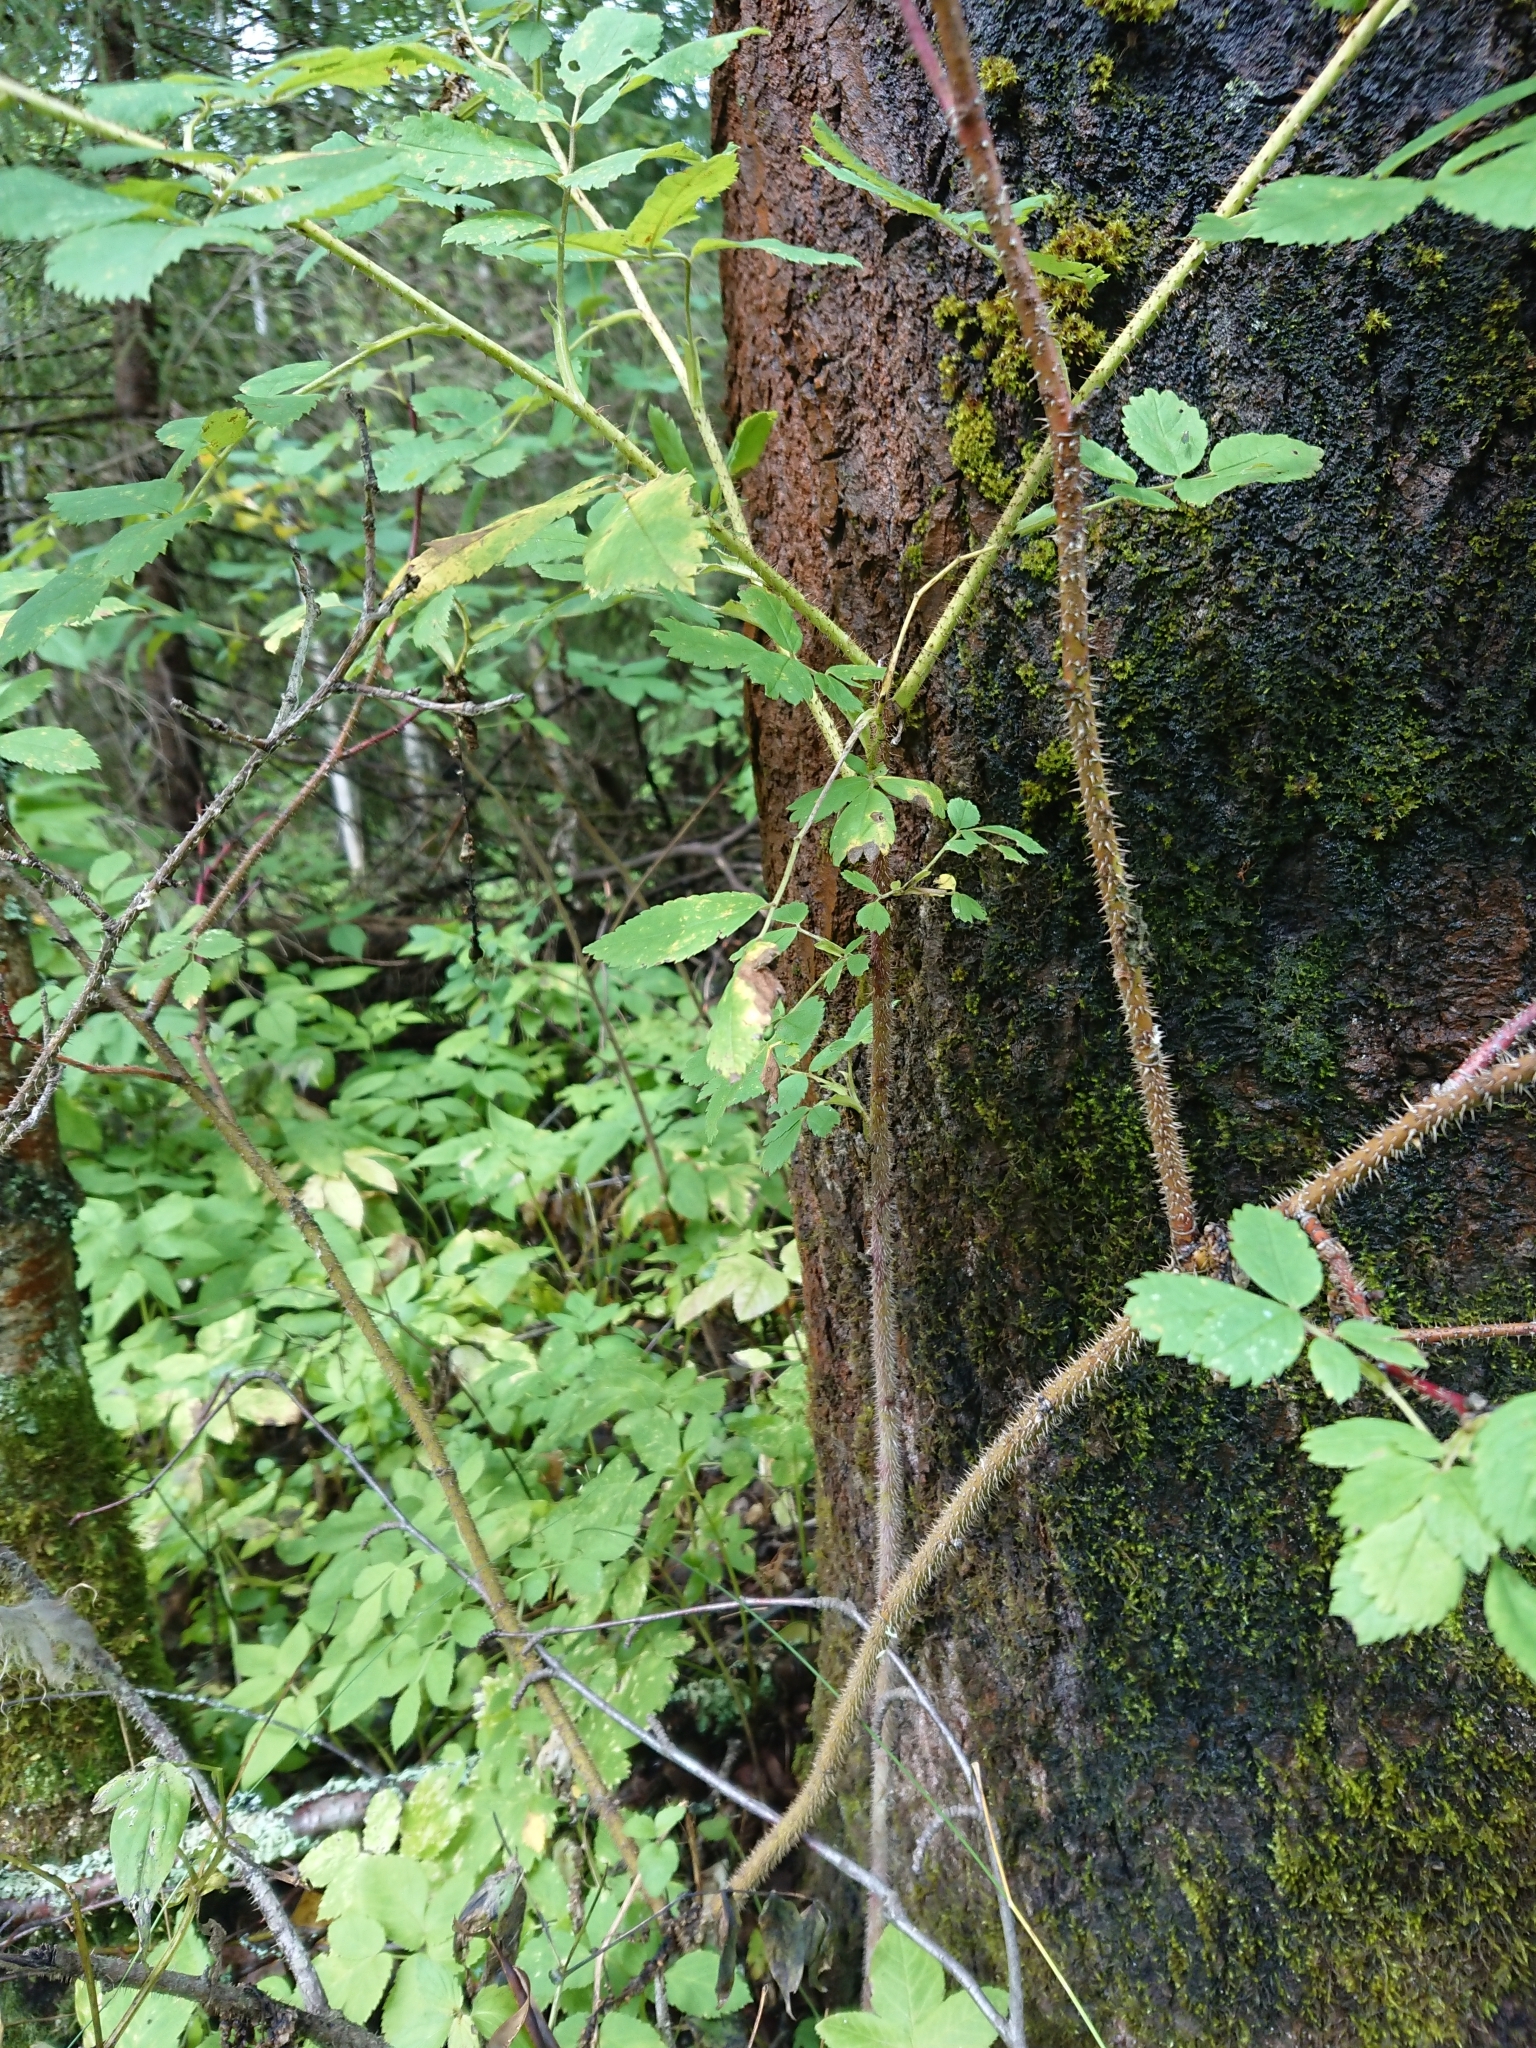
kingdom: Plantae
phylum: Tracheophyta
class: Magnoliopsida
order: Rosales
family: Rosaceae
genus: Rosa
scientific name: Rosa acicularis
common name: Prickly rose
